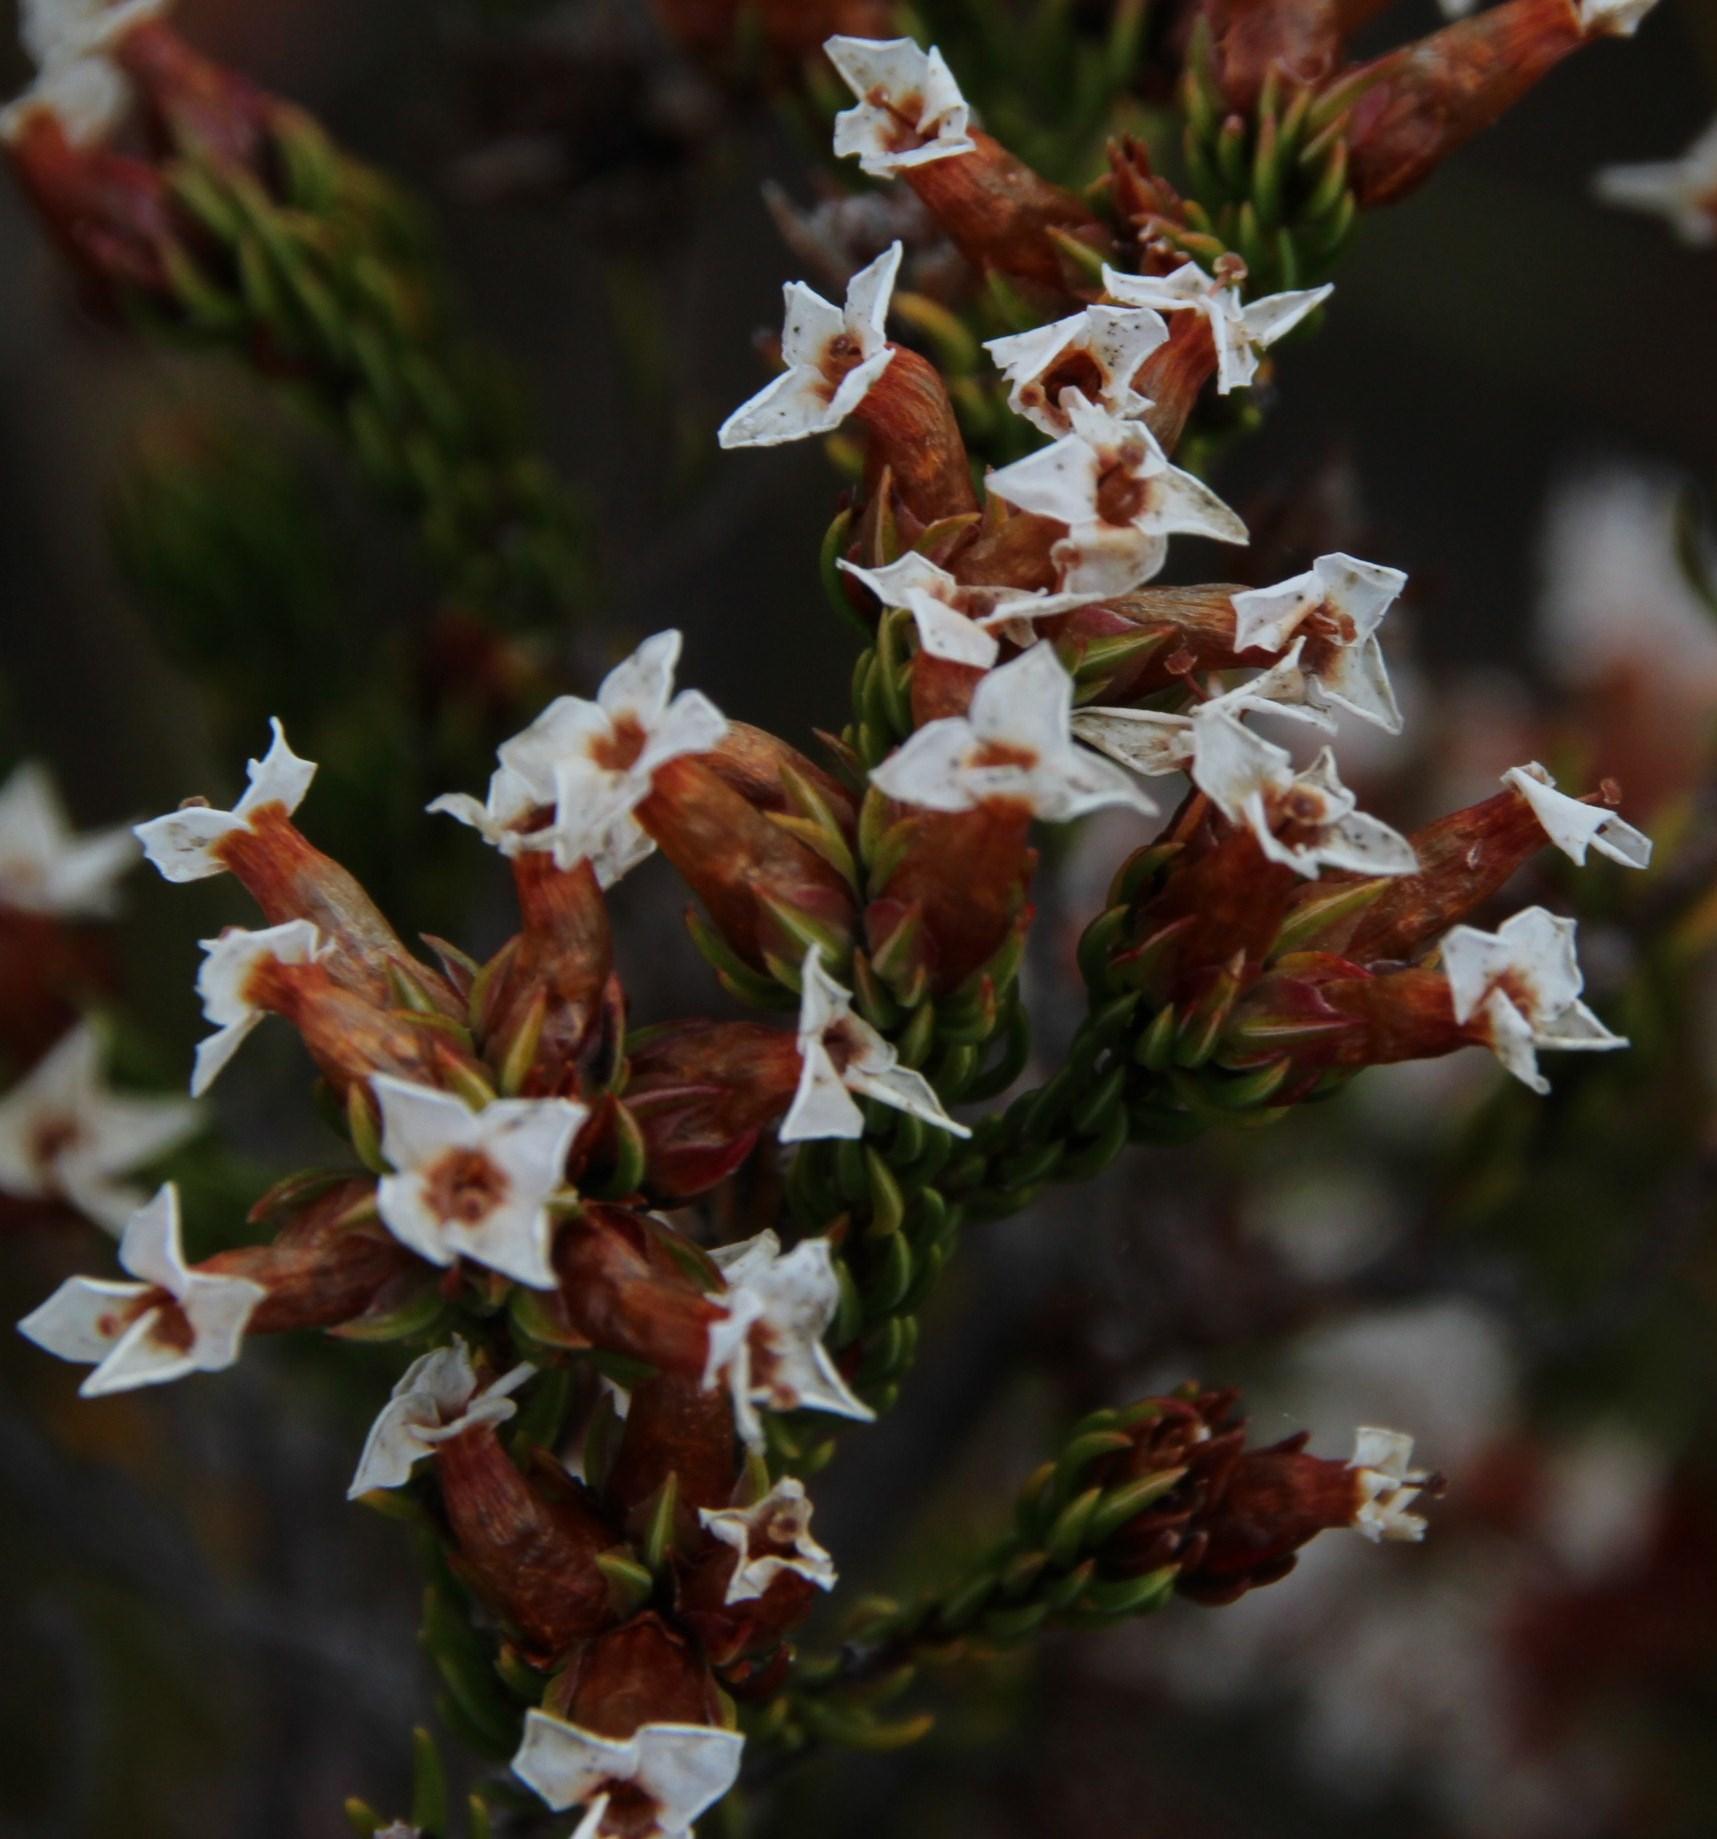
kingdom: Plantae
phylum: Tracheophyta
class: Magnoliopsida
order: Ericales
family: Ericaceae
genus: Erica
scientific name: Erica walkeria
